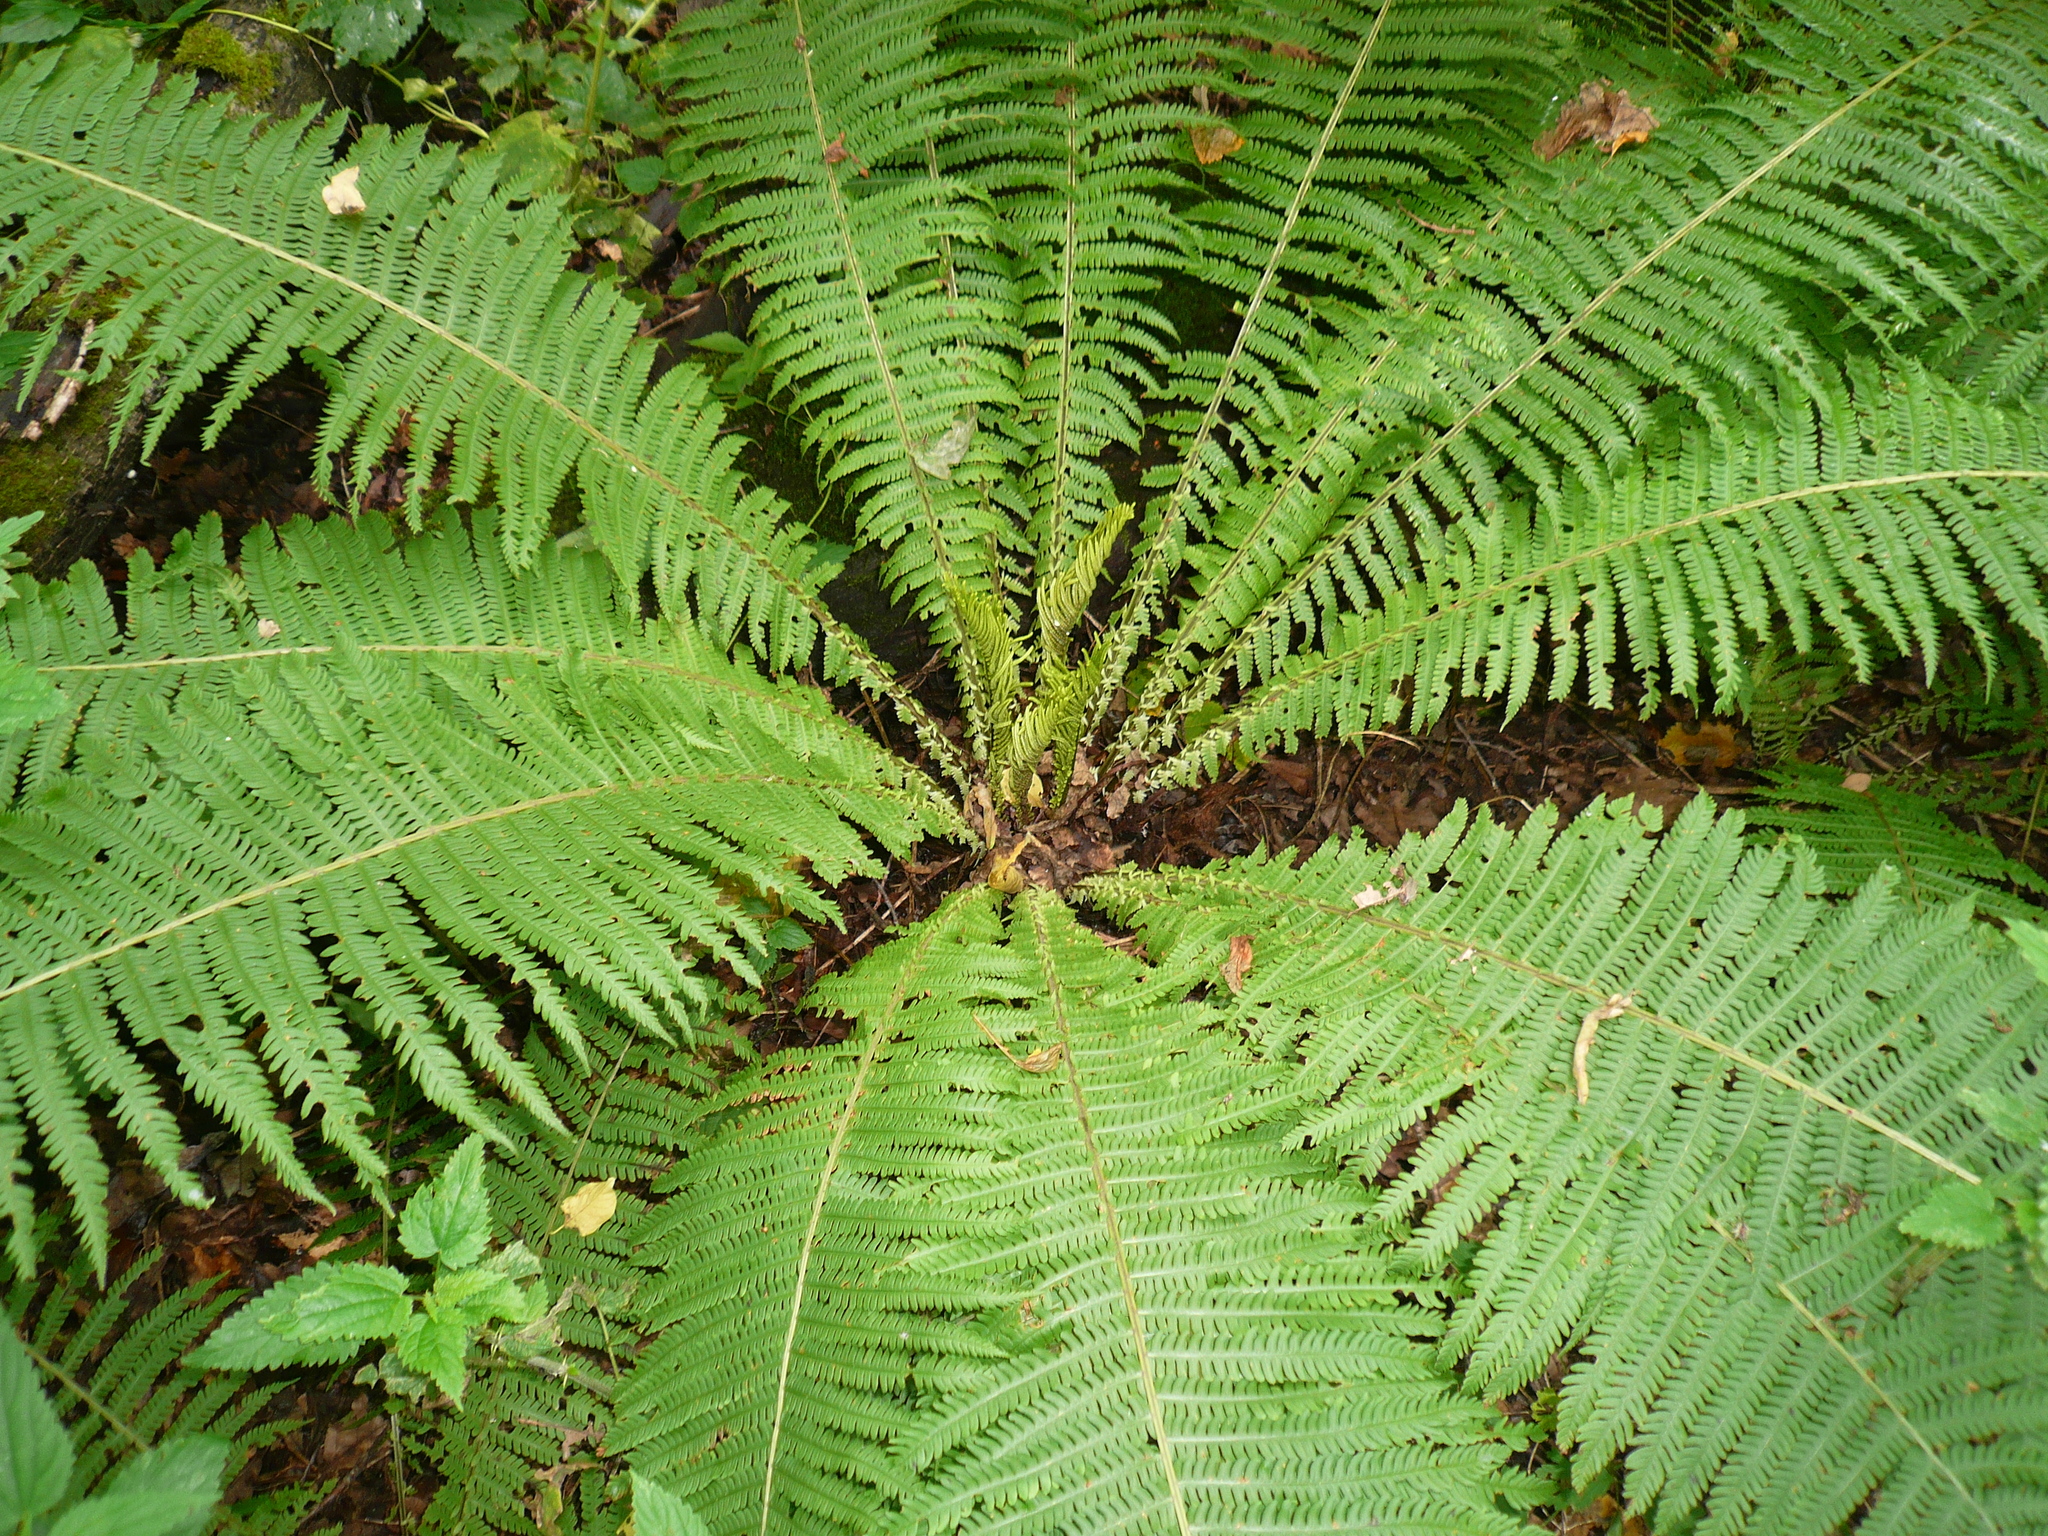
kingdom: Plantae
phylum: Tracheophyta
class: Polypodiopsida
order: Polypodiales
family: Onocleaceae
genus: Matteuccia
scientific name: Matteuccia struthiopteris
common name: Ostrich fern
